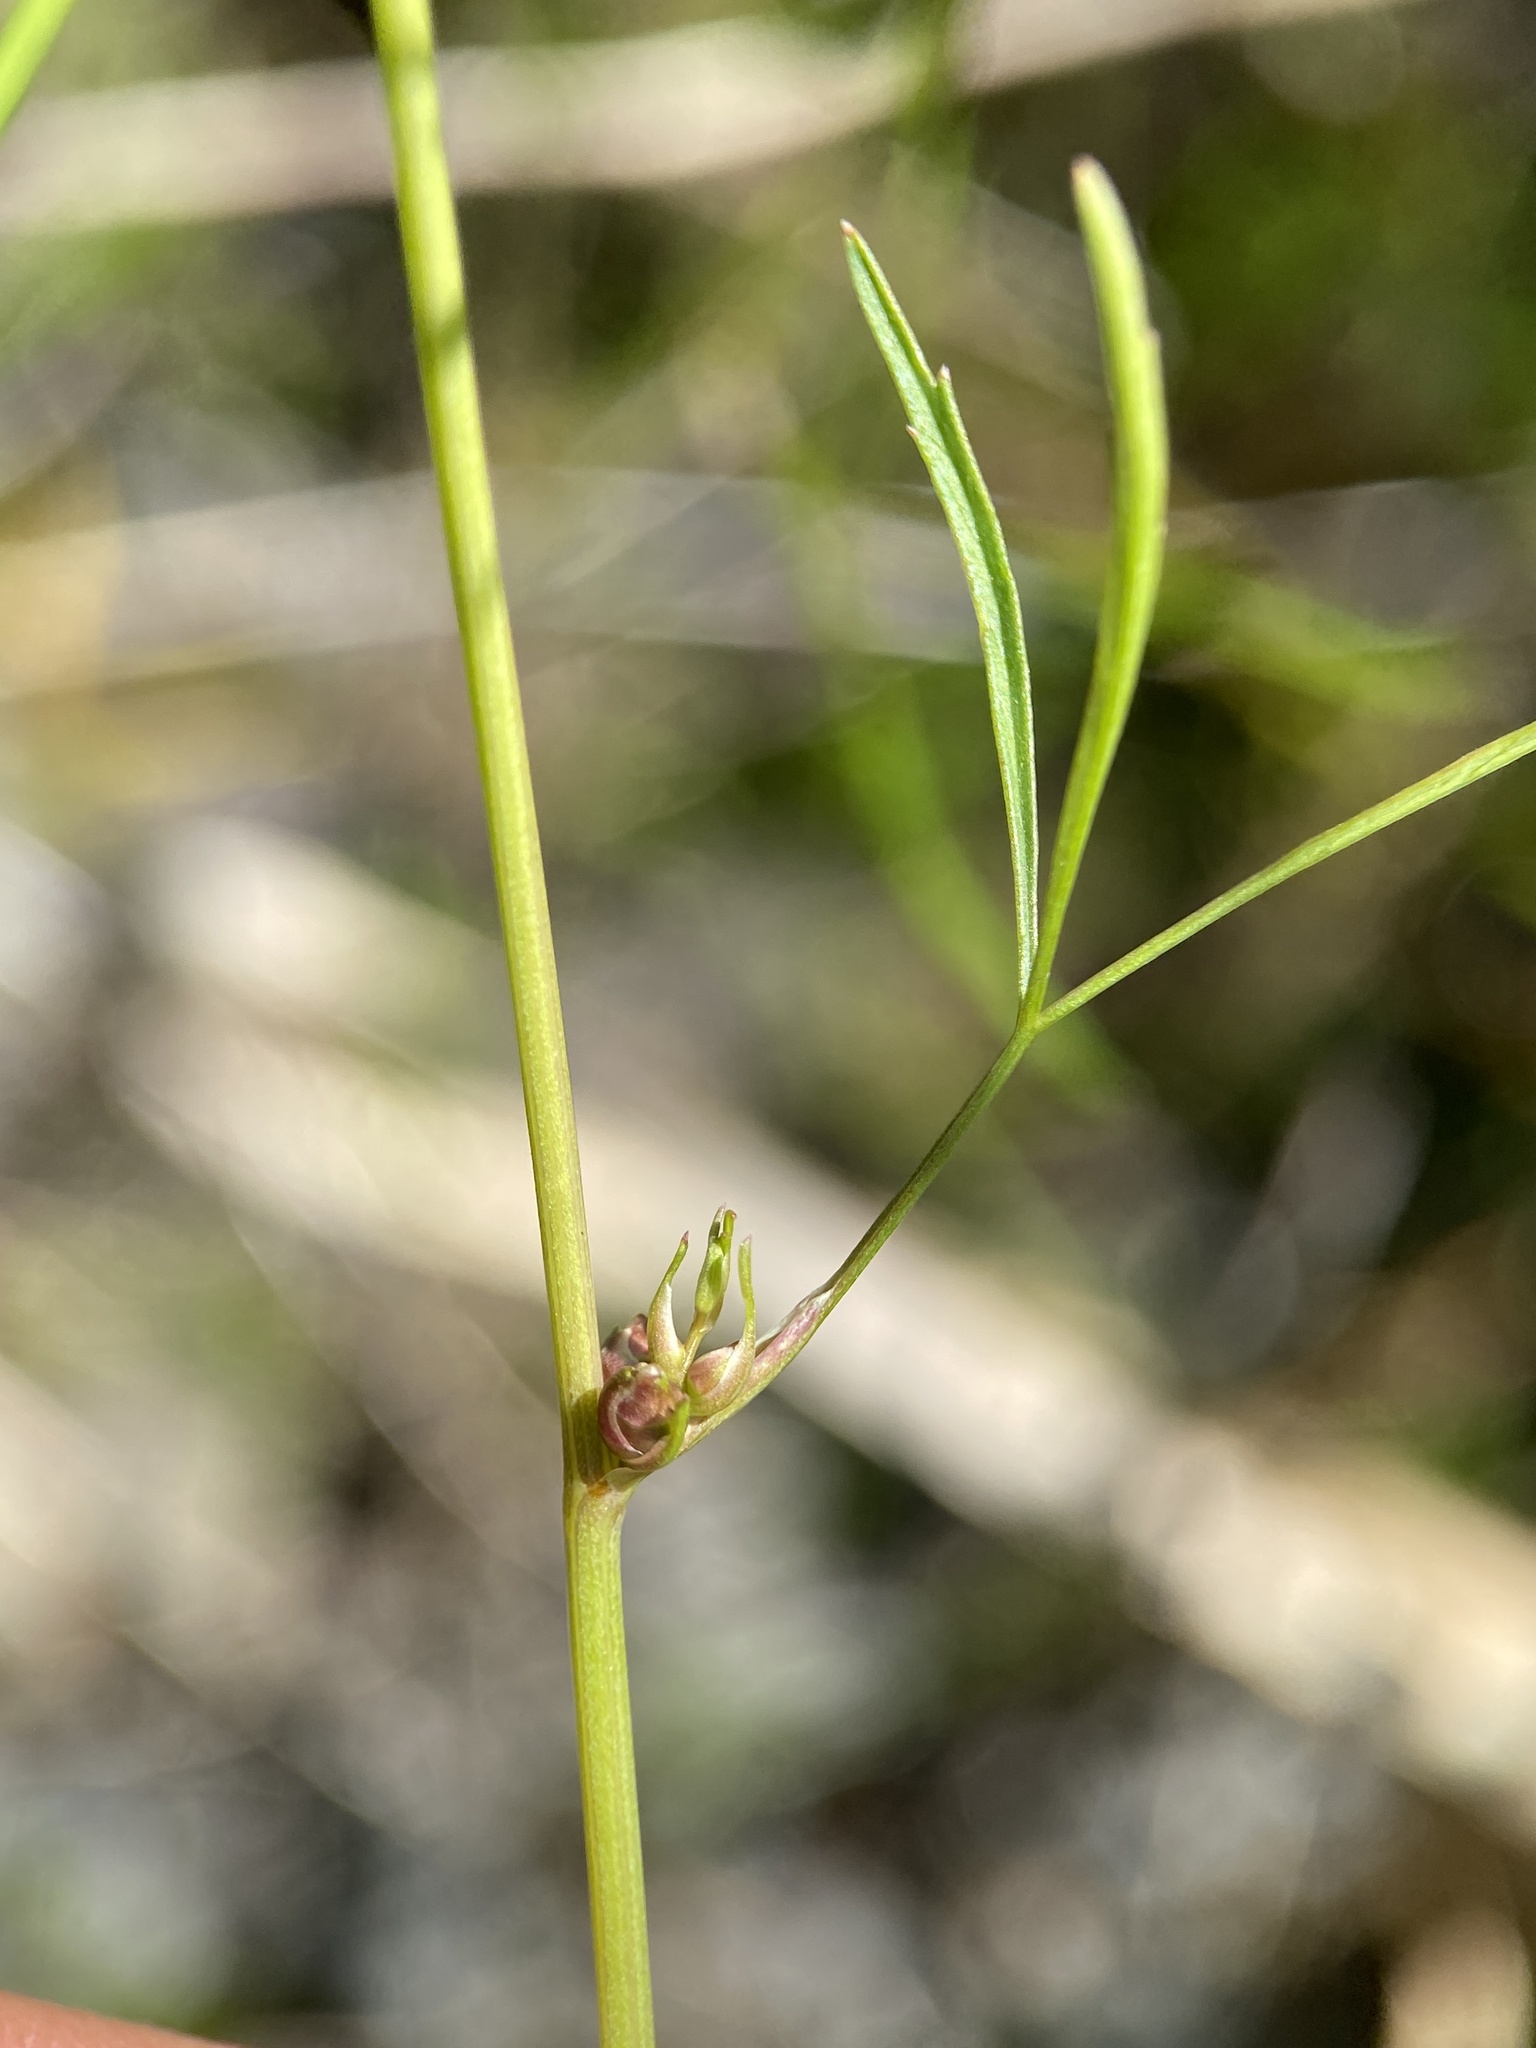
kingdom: Plantae
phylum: Tracheophyta
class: Magnoliopsida
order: Apiales
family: Apiaceae
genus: Cicuta
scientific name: Cicuta bulbifera
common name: Bulb-bearing water-hemlock
